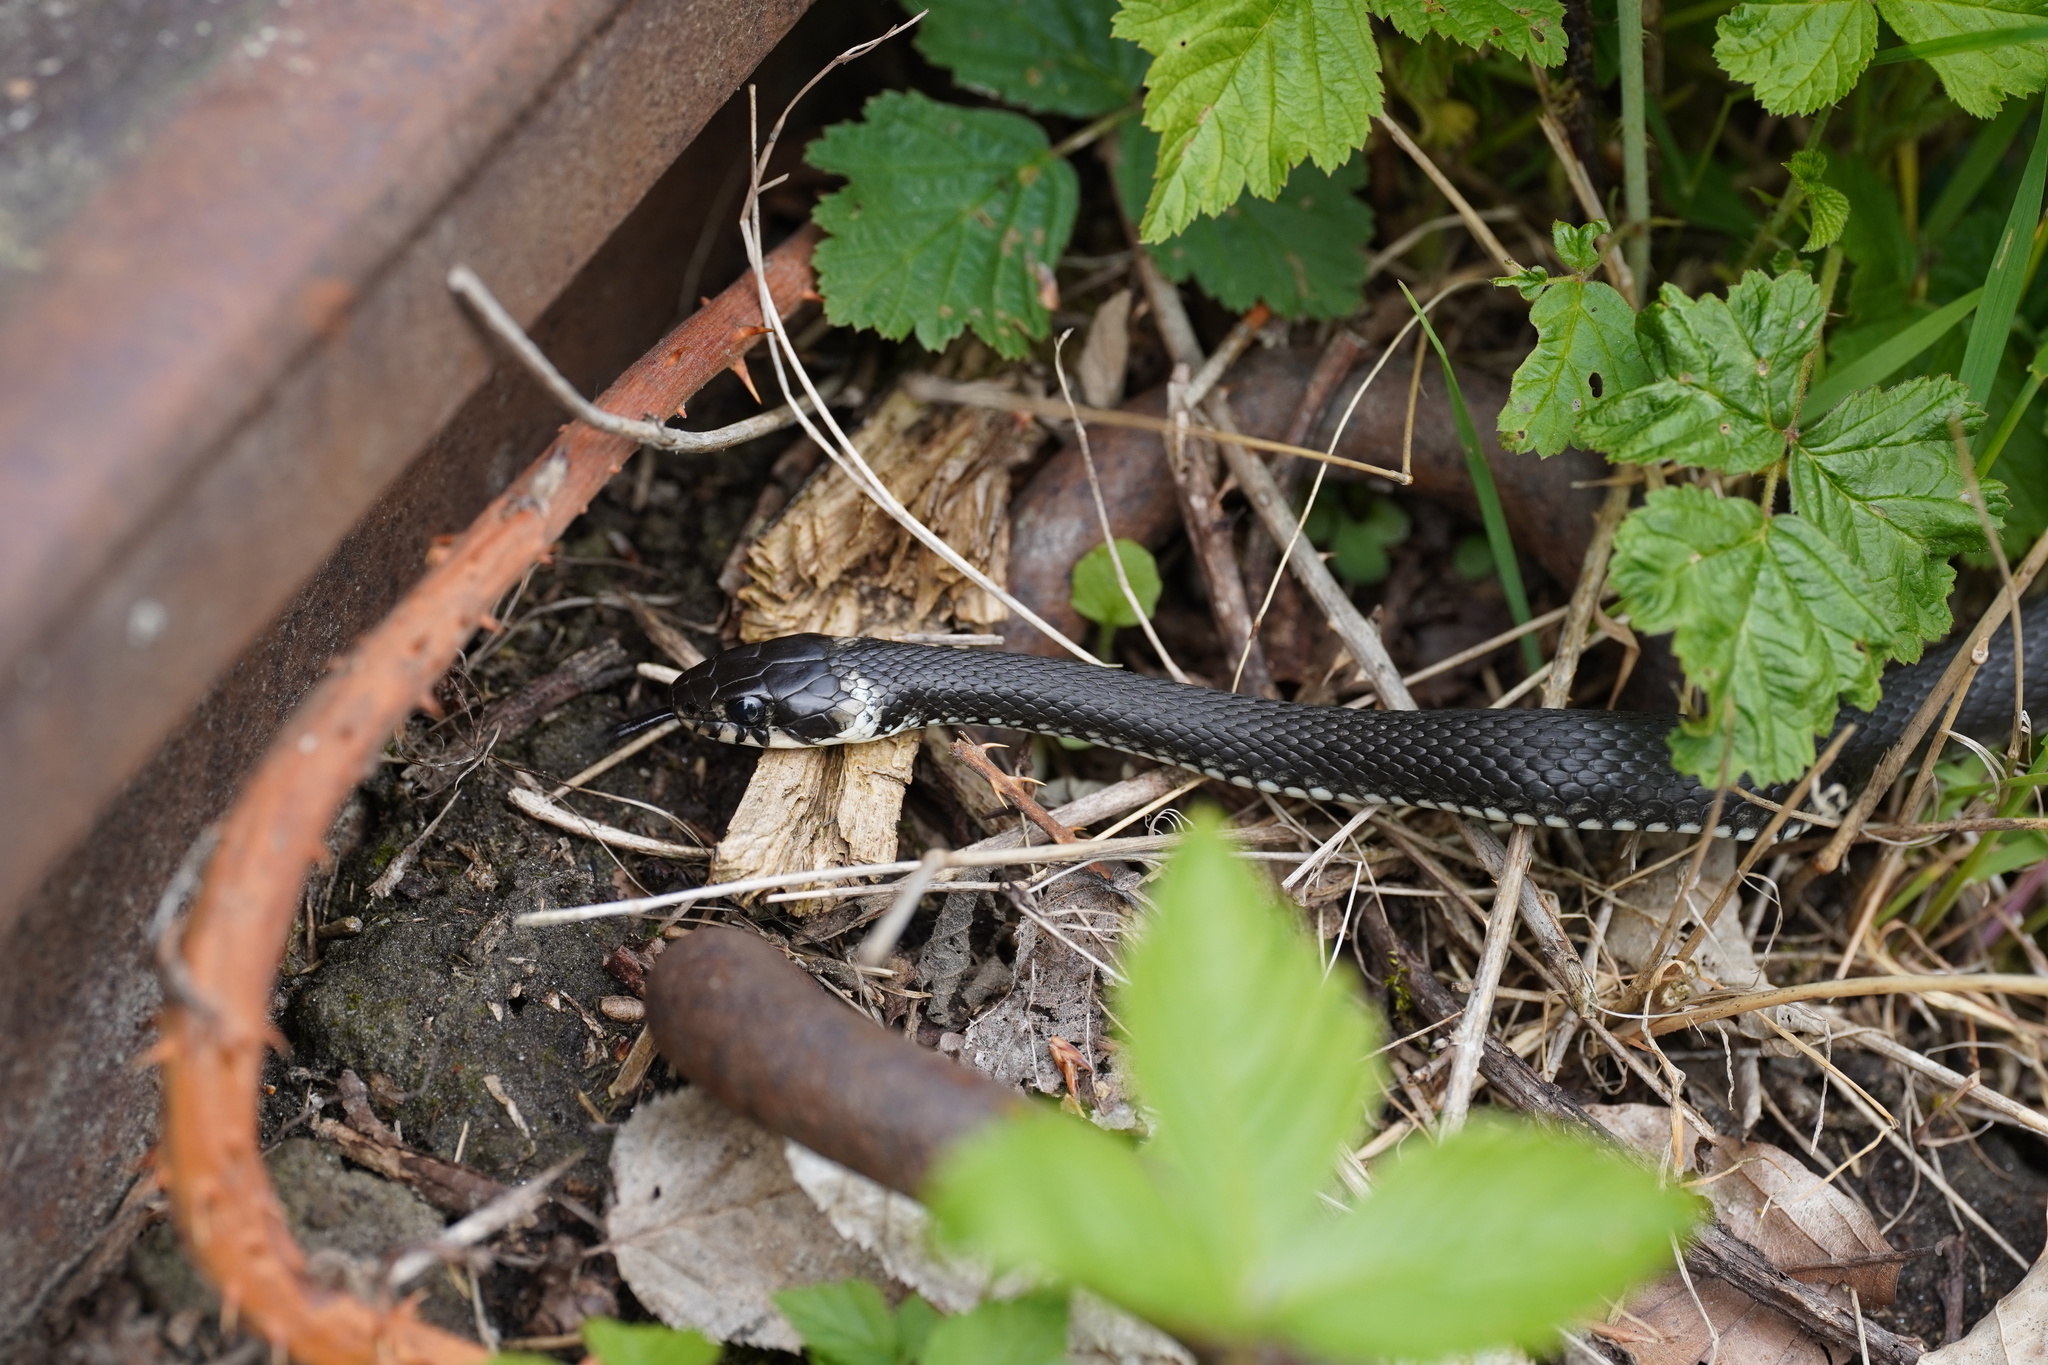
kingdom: Animalia
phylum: Chordata
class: Squamata
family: Colubridae
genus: Natrix
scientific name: Natrix natrix
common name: Grass snake
